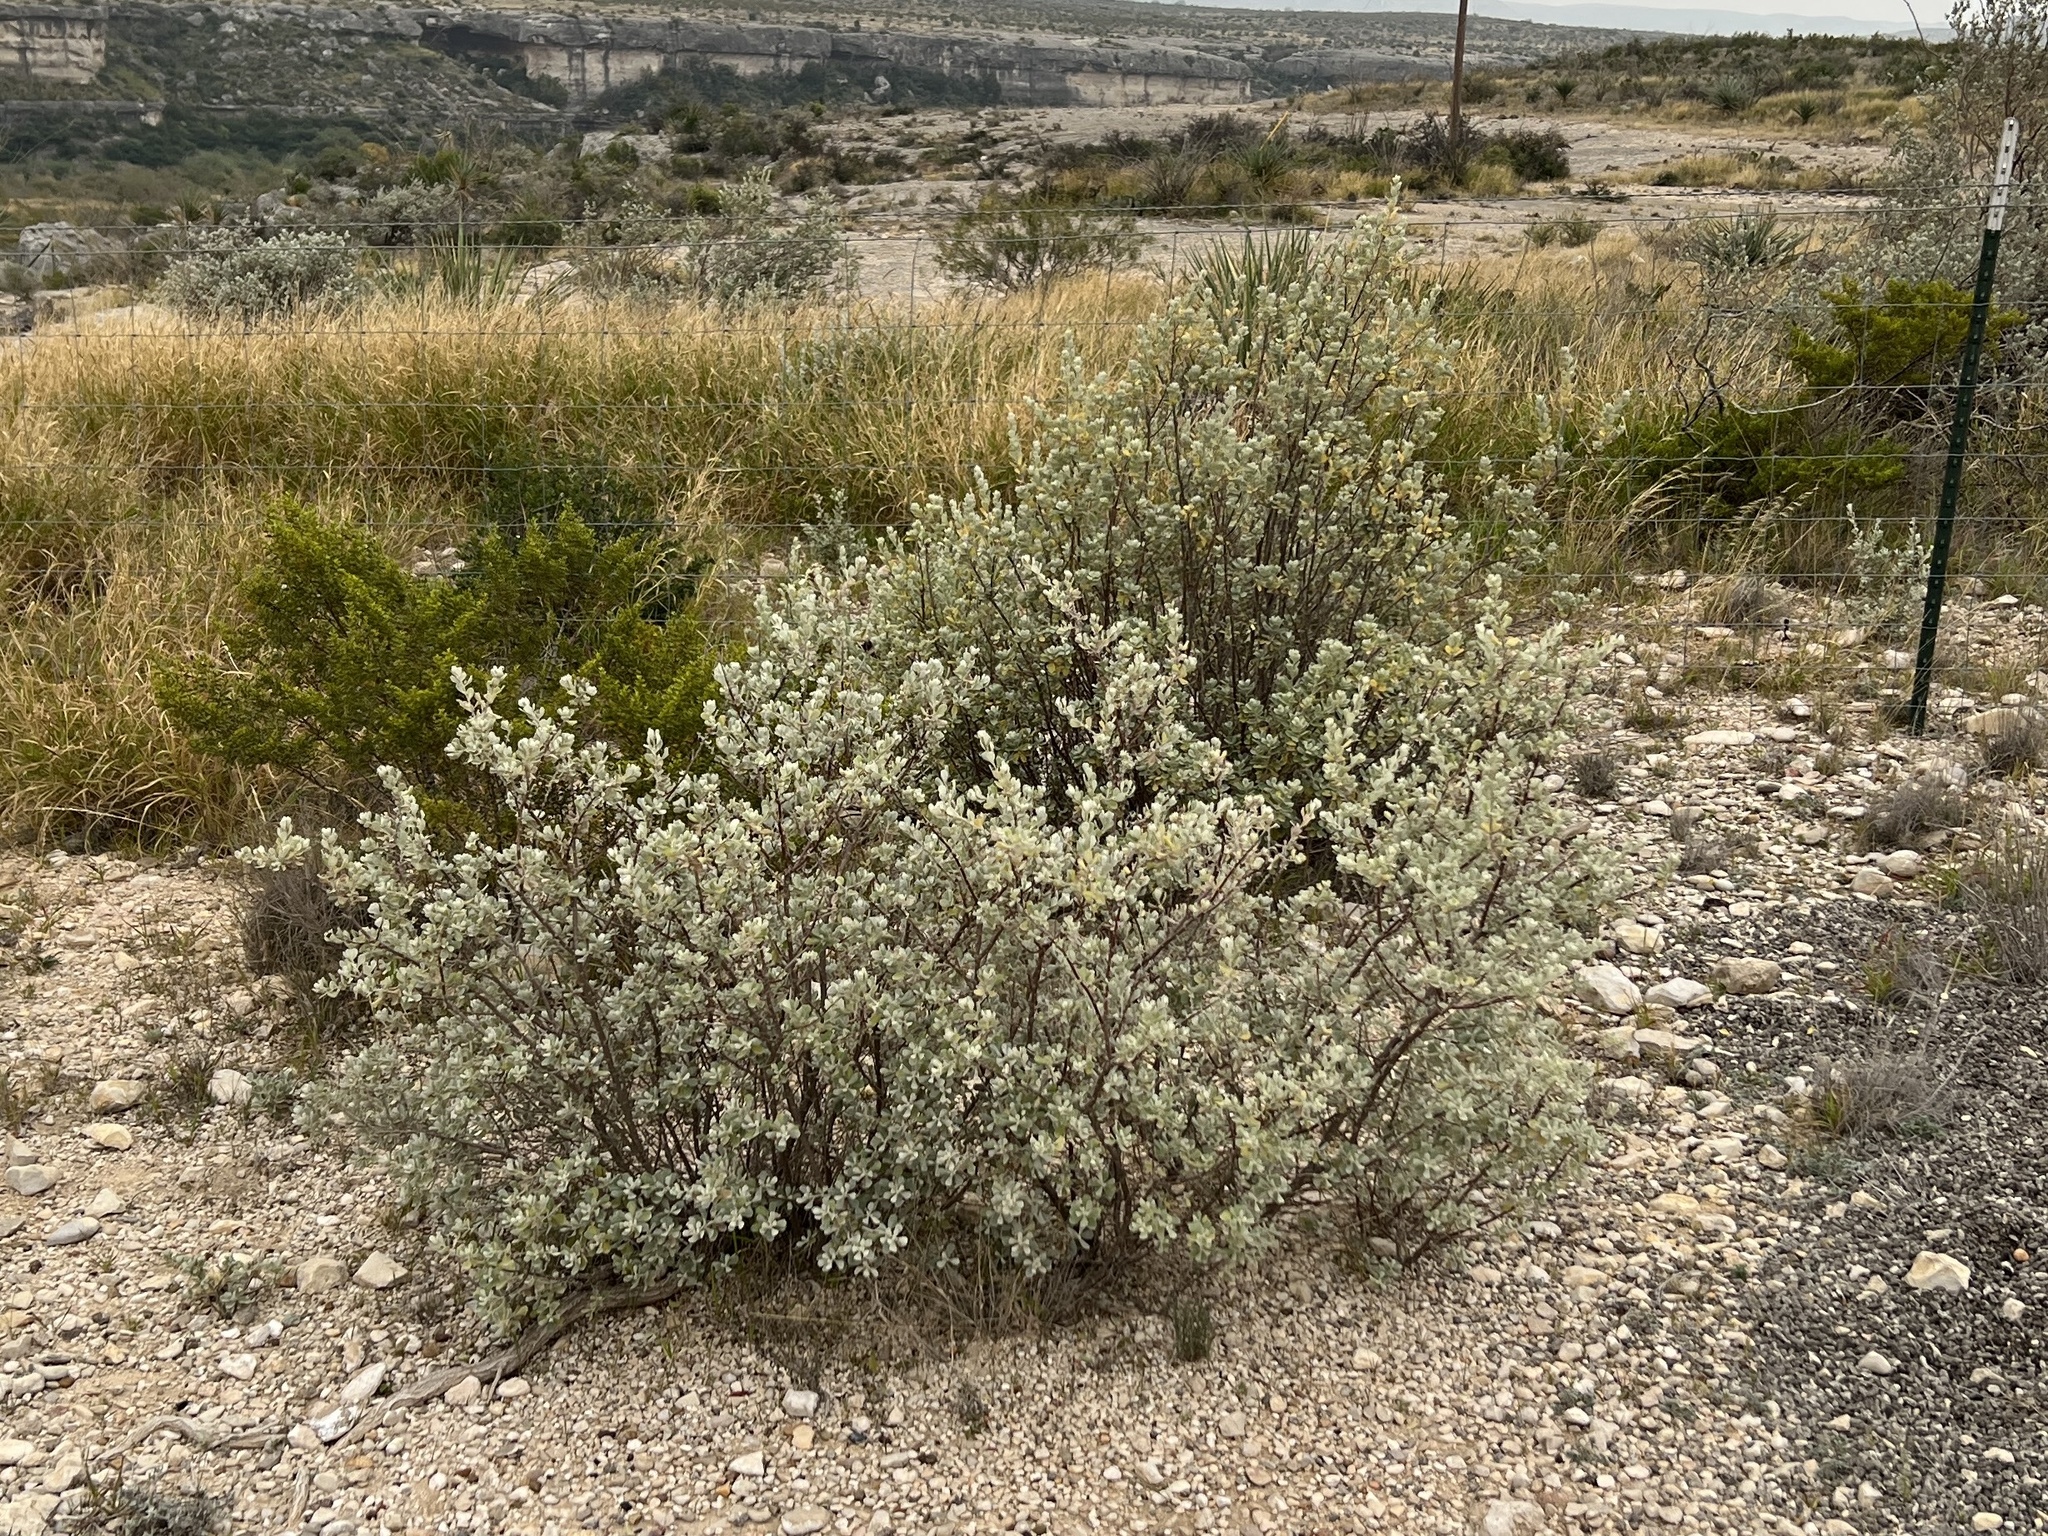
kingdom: Plantae
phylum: Tracheophyta
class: Magnoliopsida
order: Lamiales
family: Scrophulariaceae
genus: Leucophyllum
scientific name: Leucophyllum frutescens
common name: Texas silverleaf
